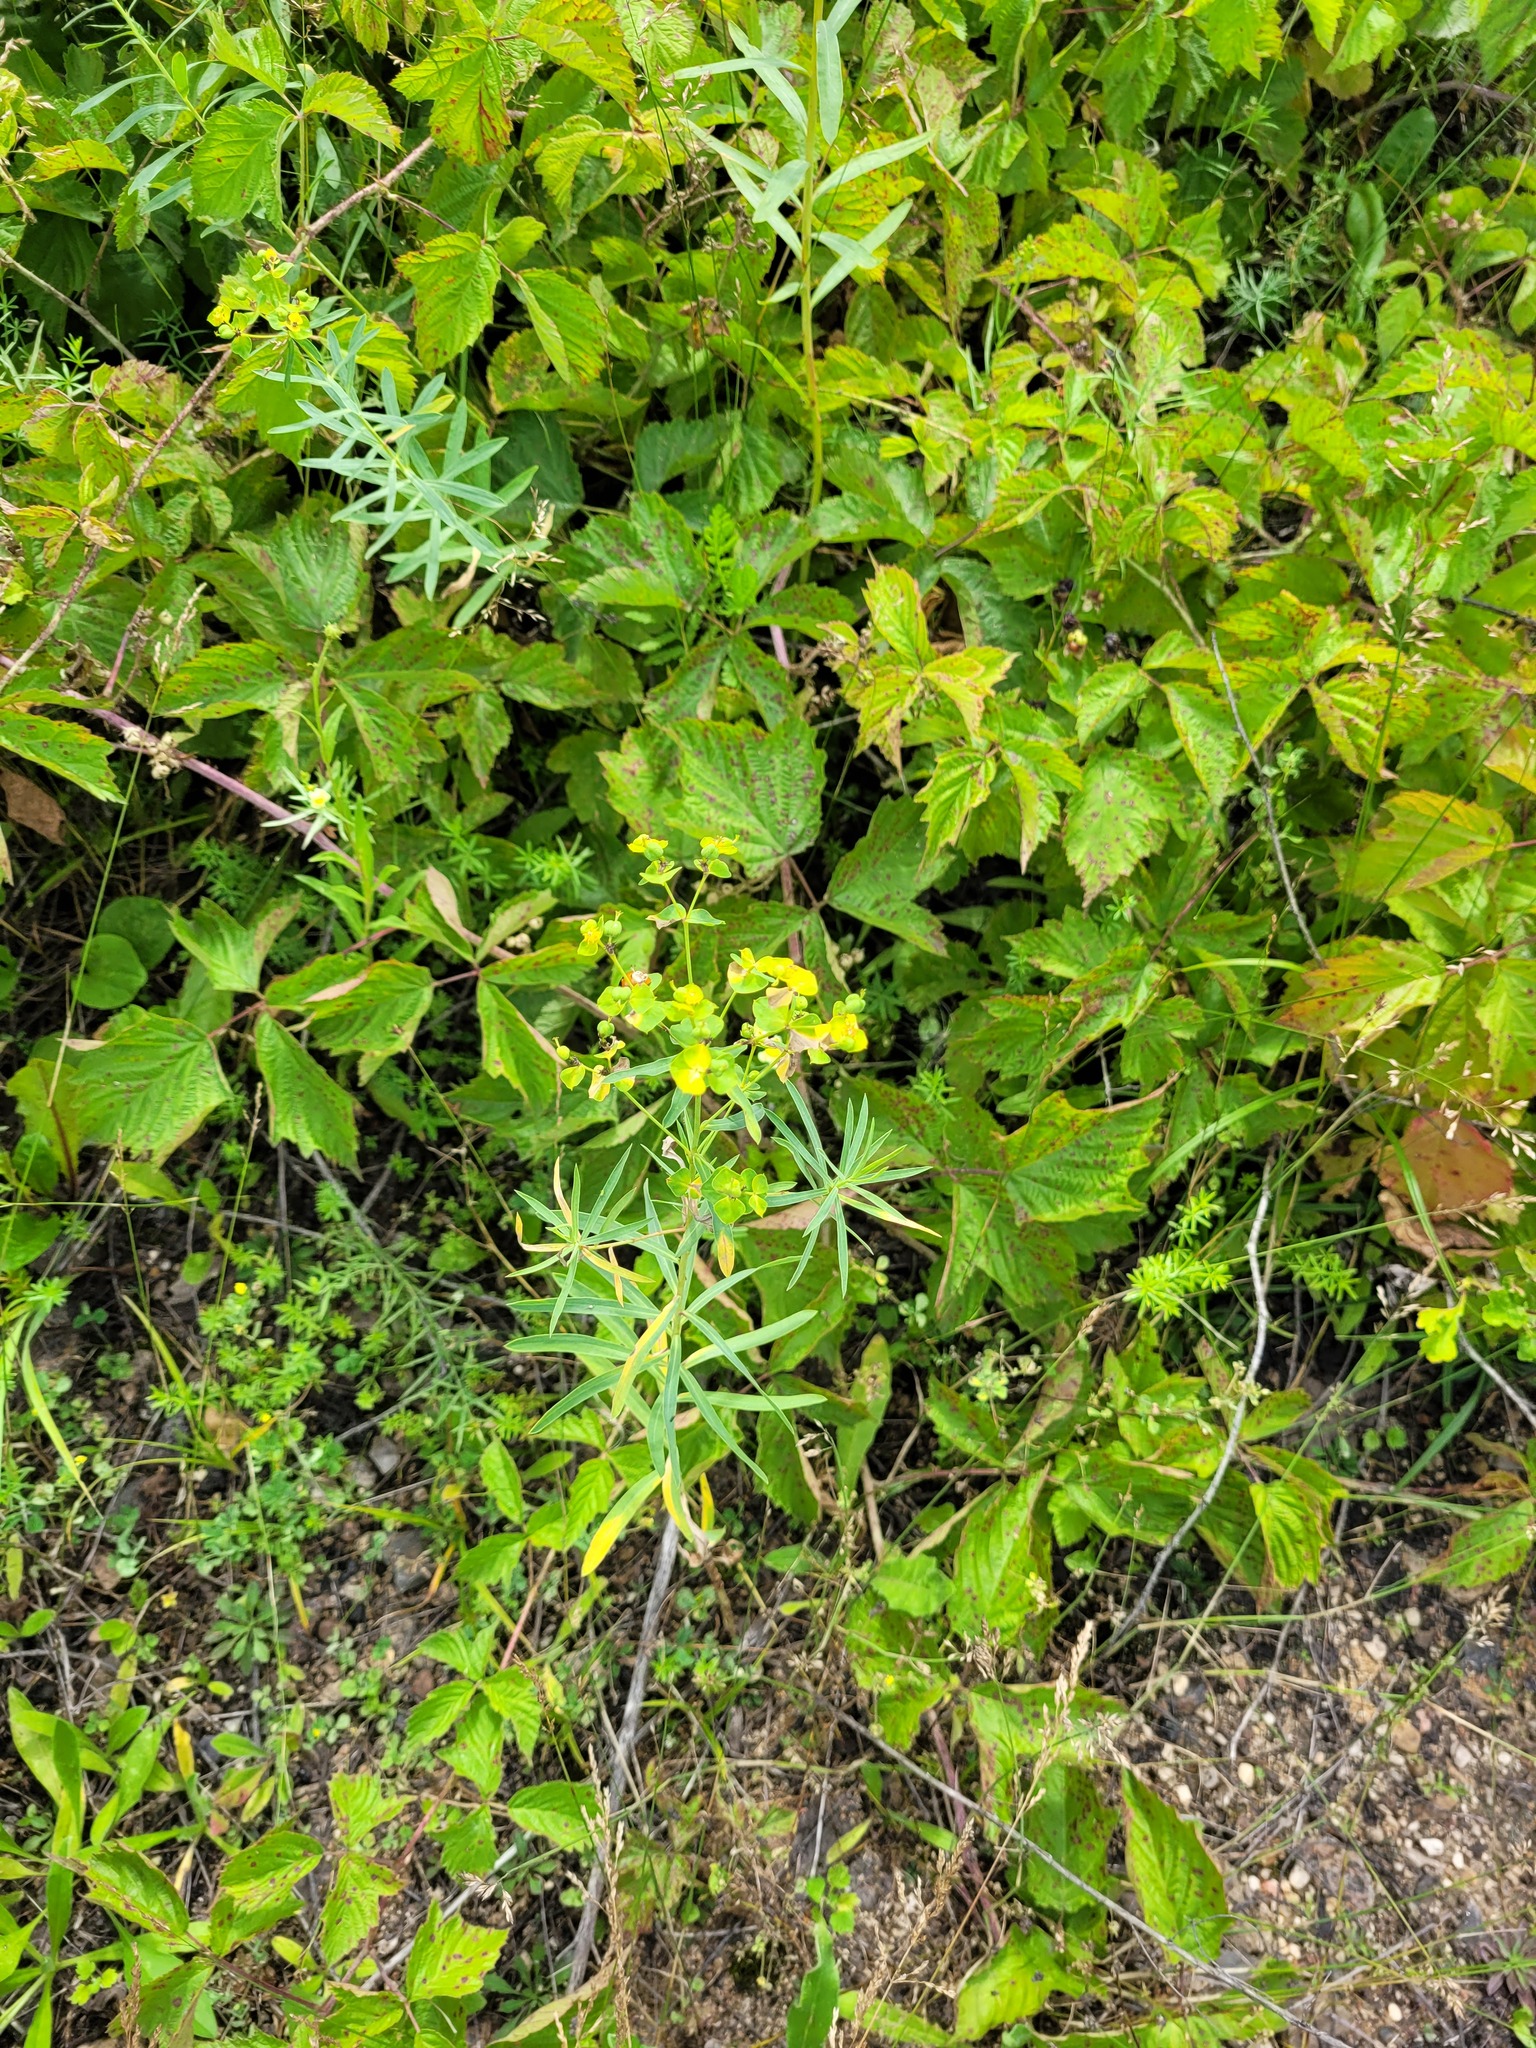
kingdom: Plantae
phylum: Tracheophyta
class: Magnoliopsida
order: Malpighiales
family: Euphorbiaceae
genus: Euphorbia
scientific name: Euphorbia virgata
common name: Leafy spurge
